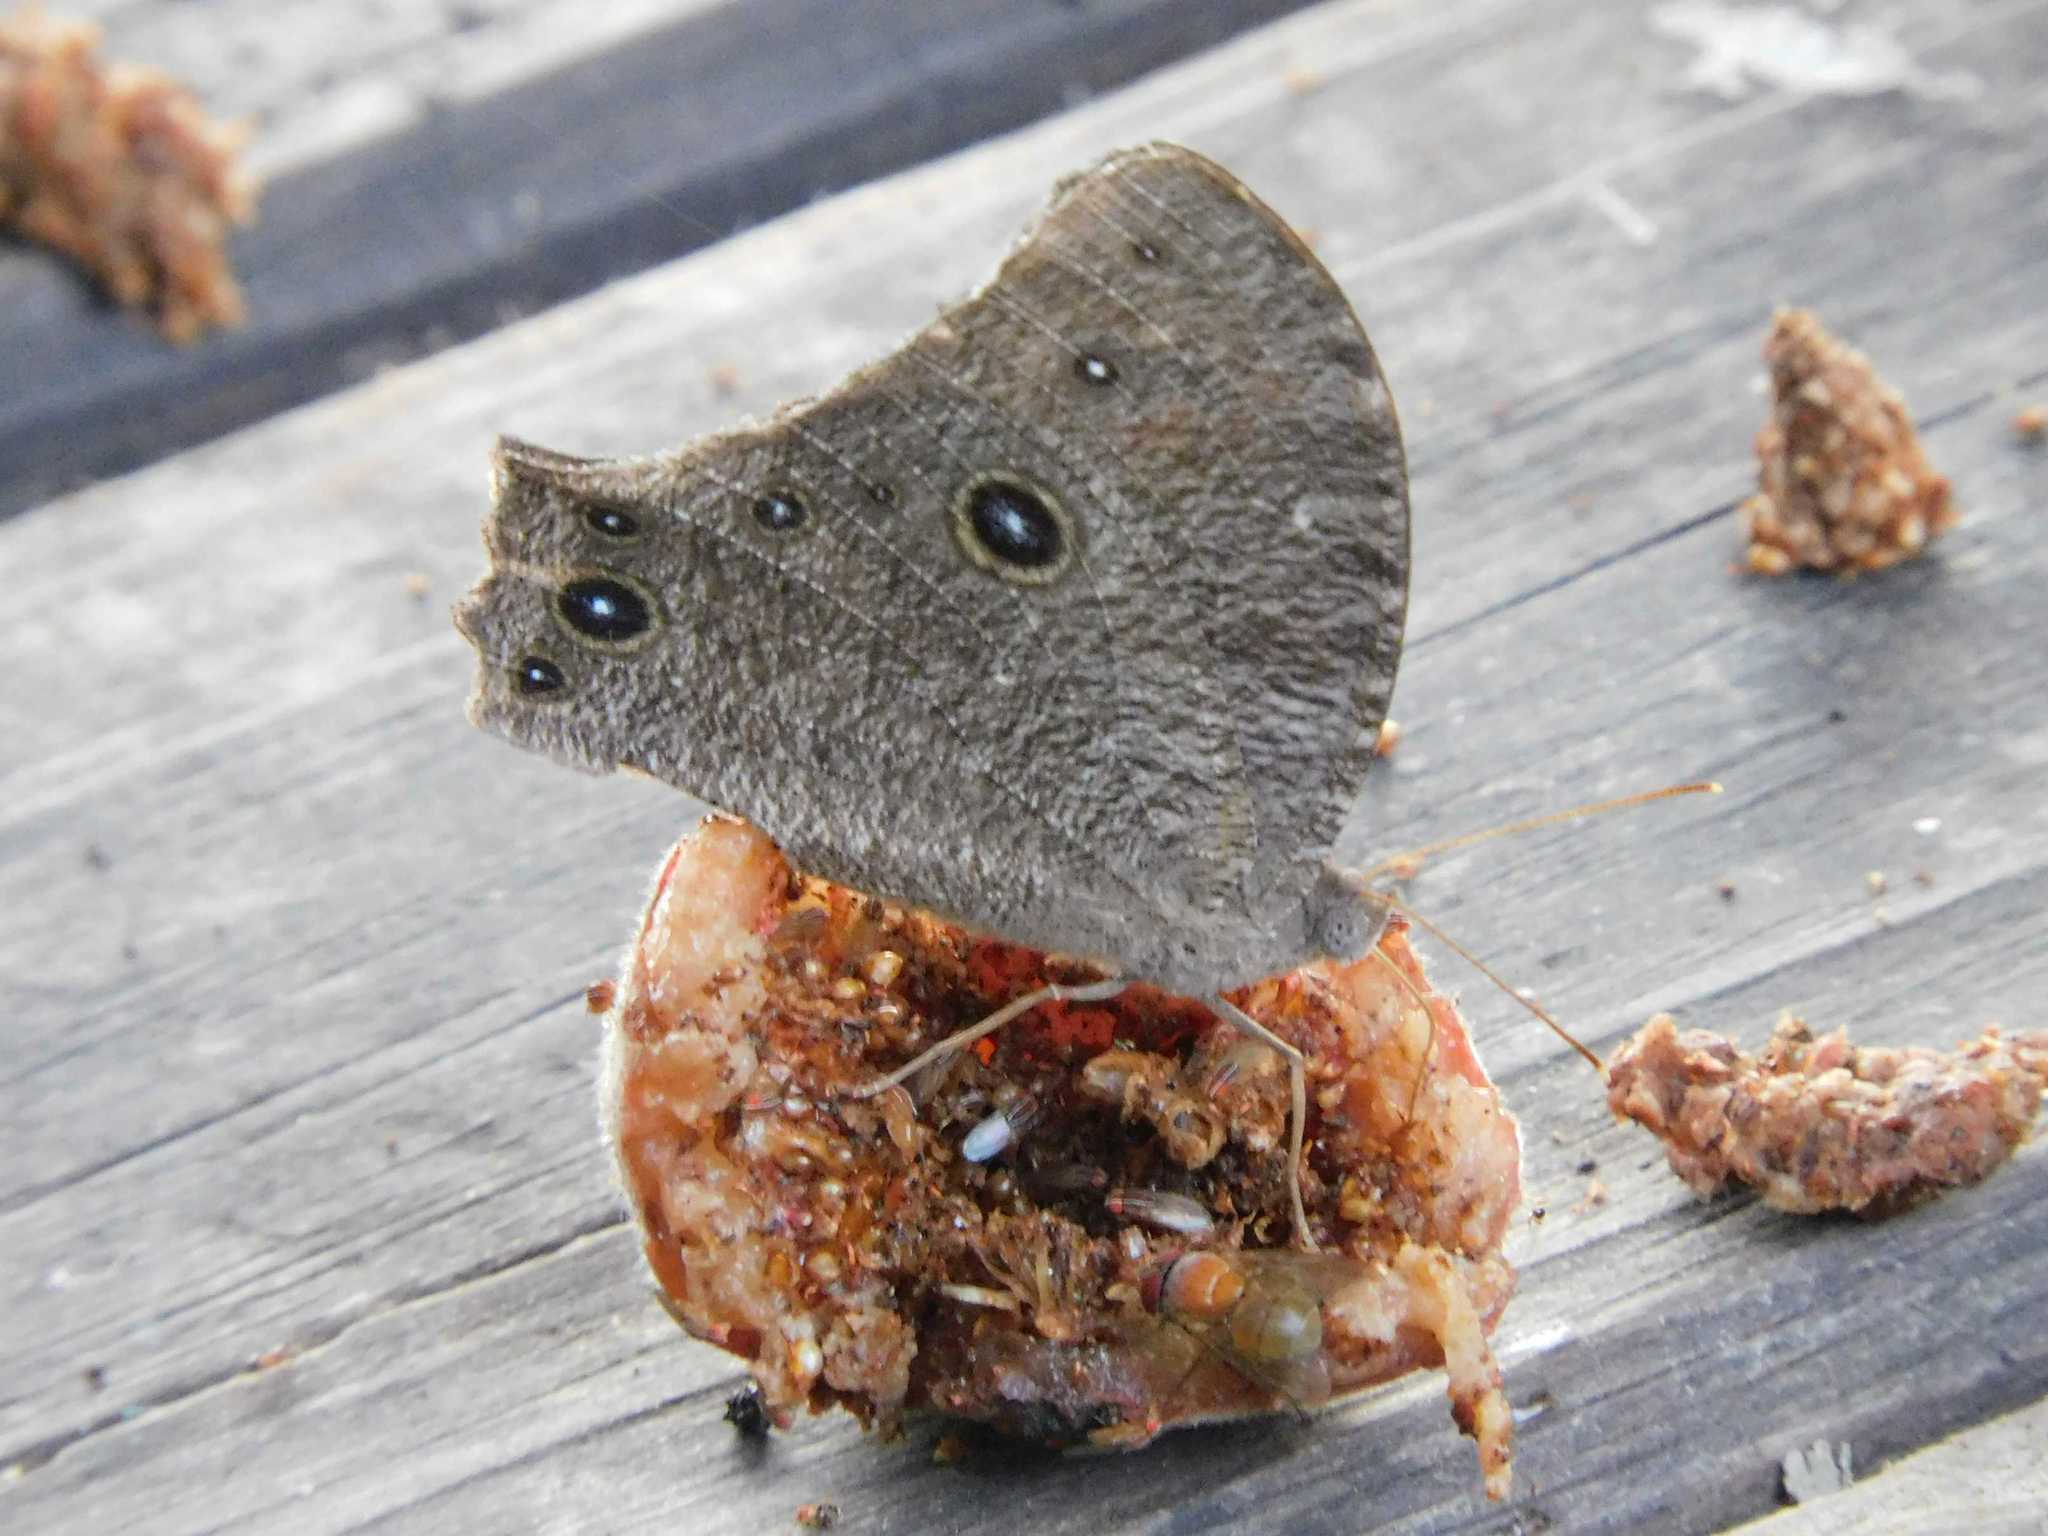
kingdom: Animalia
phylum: Arthropoda
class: Insecta
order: Lepidoptera
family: Nymphalidae
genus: Melanitis
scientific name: Melanitis leda
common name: Twilight brown
